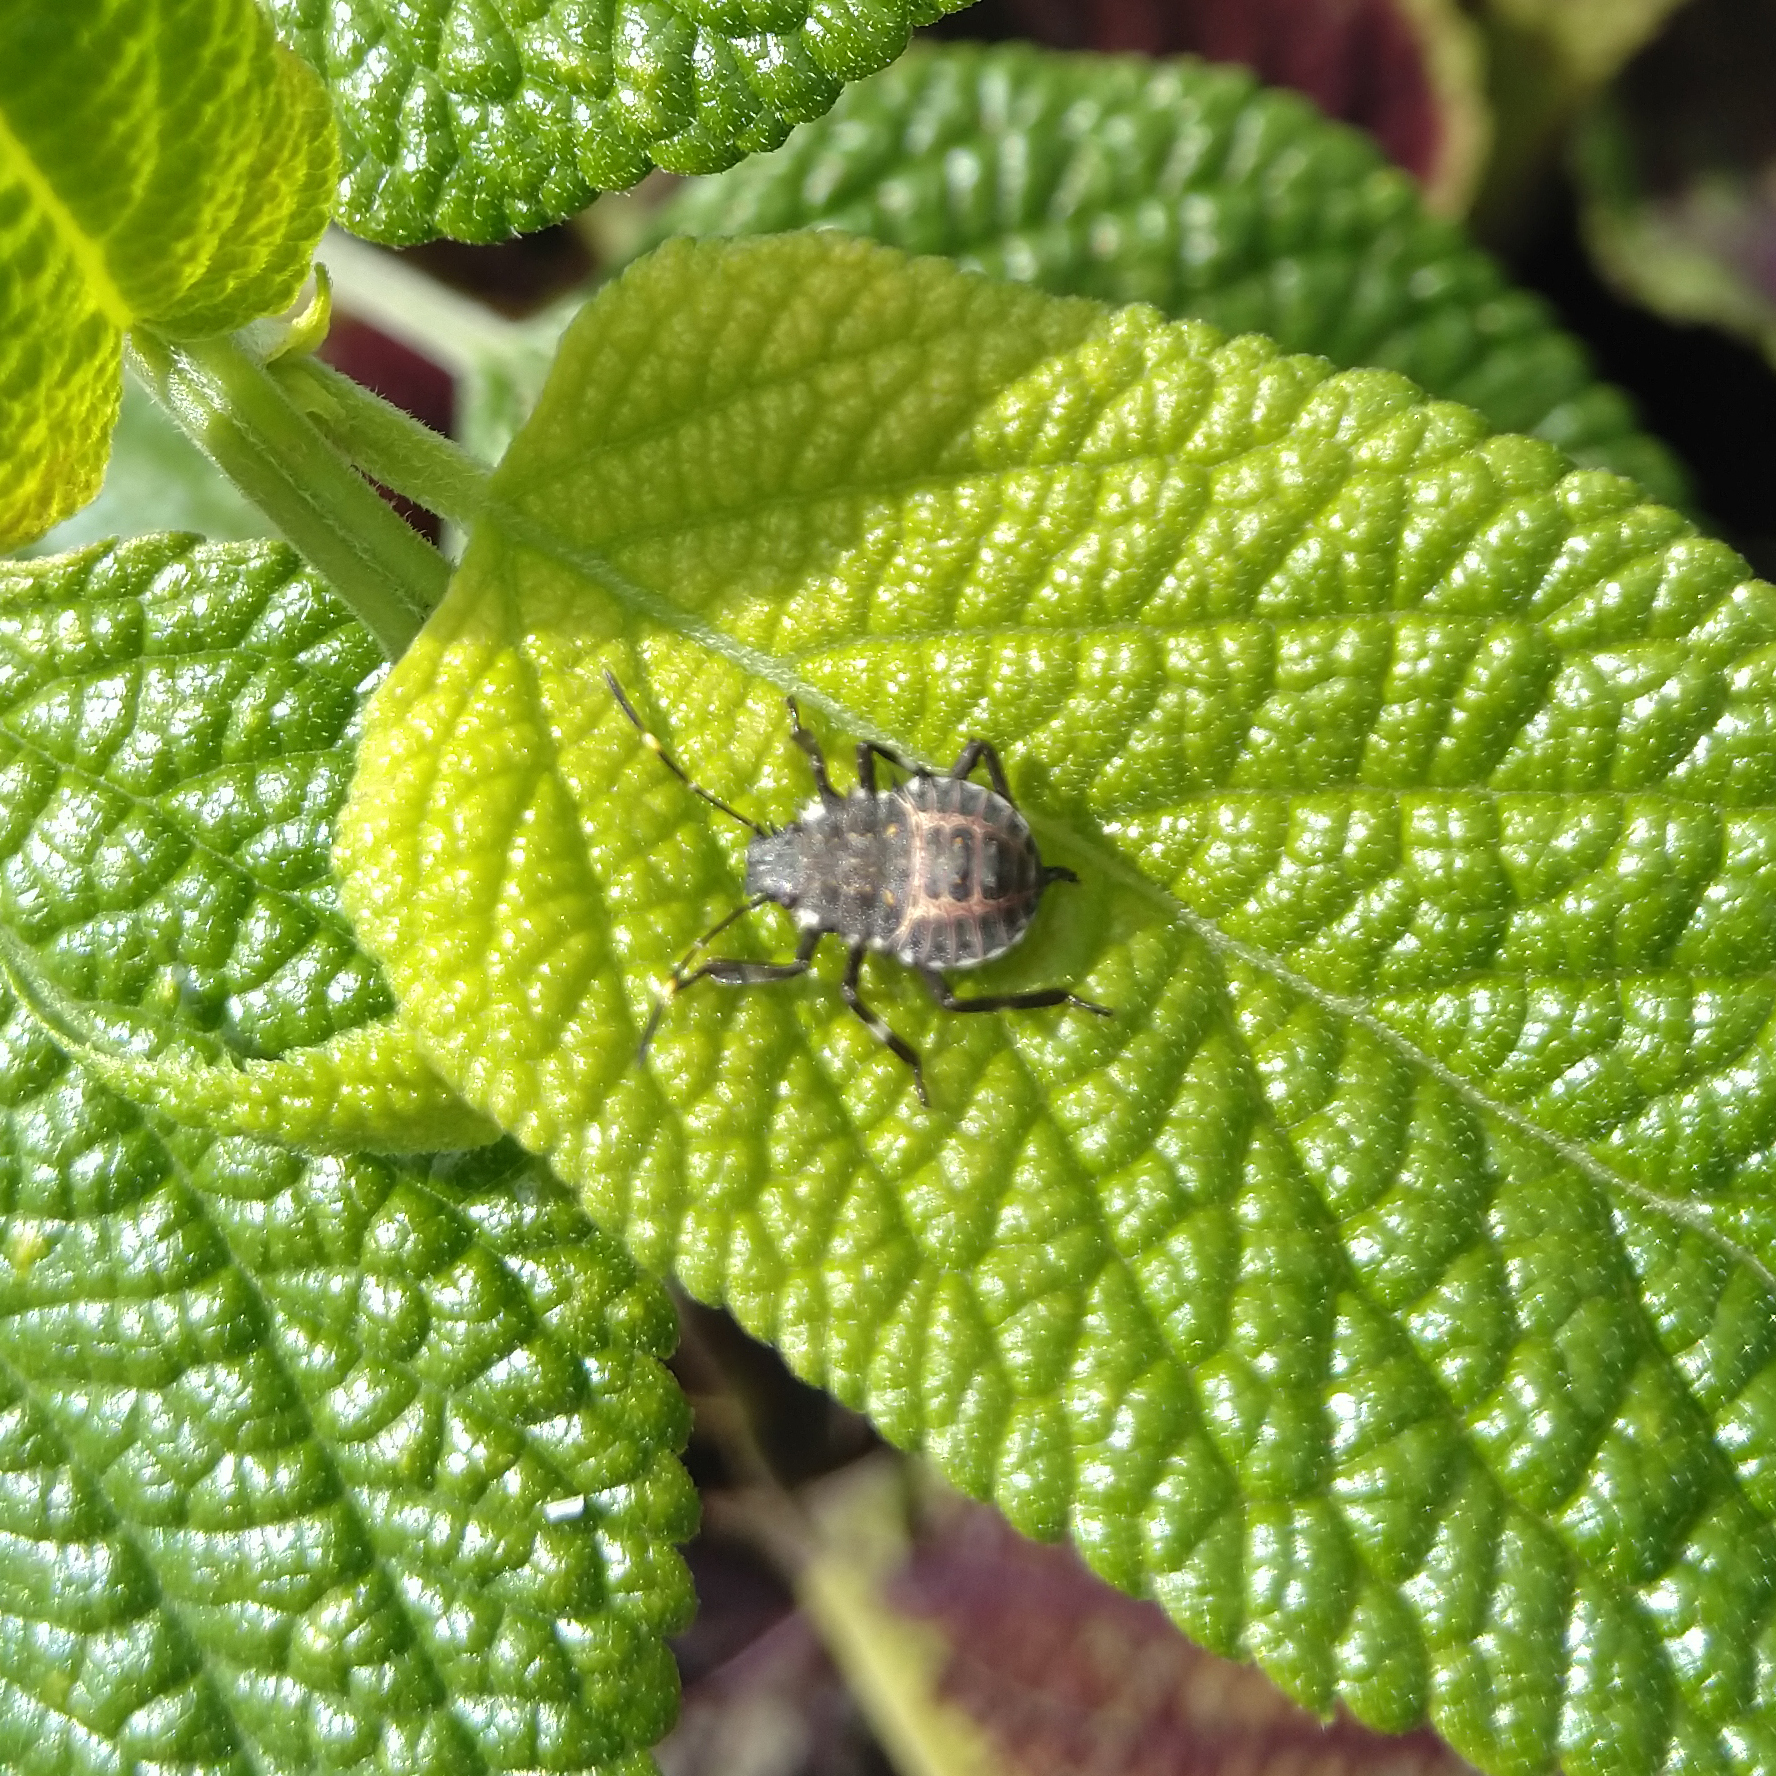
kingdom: Animalia
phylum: Arthropoda
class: Insecta
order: Hemiptera
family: Pentatomidae
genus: Halyomorpha
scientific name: Halyomorpha halys
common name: Brown marmorated stink bug
